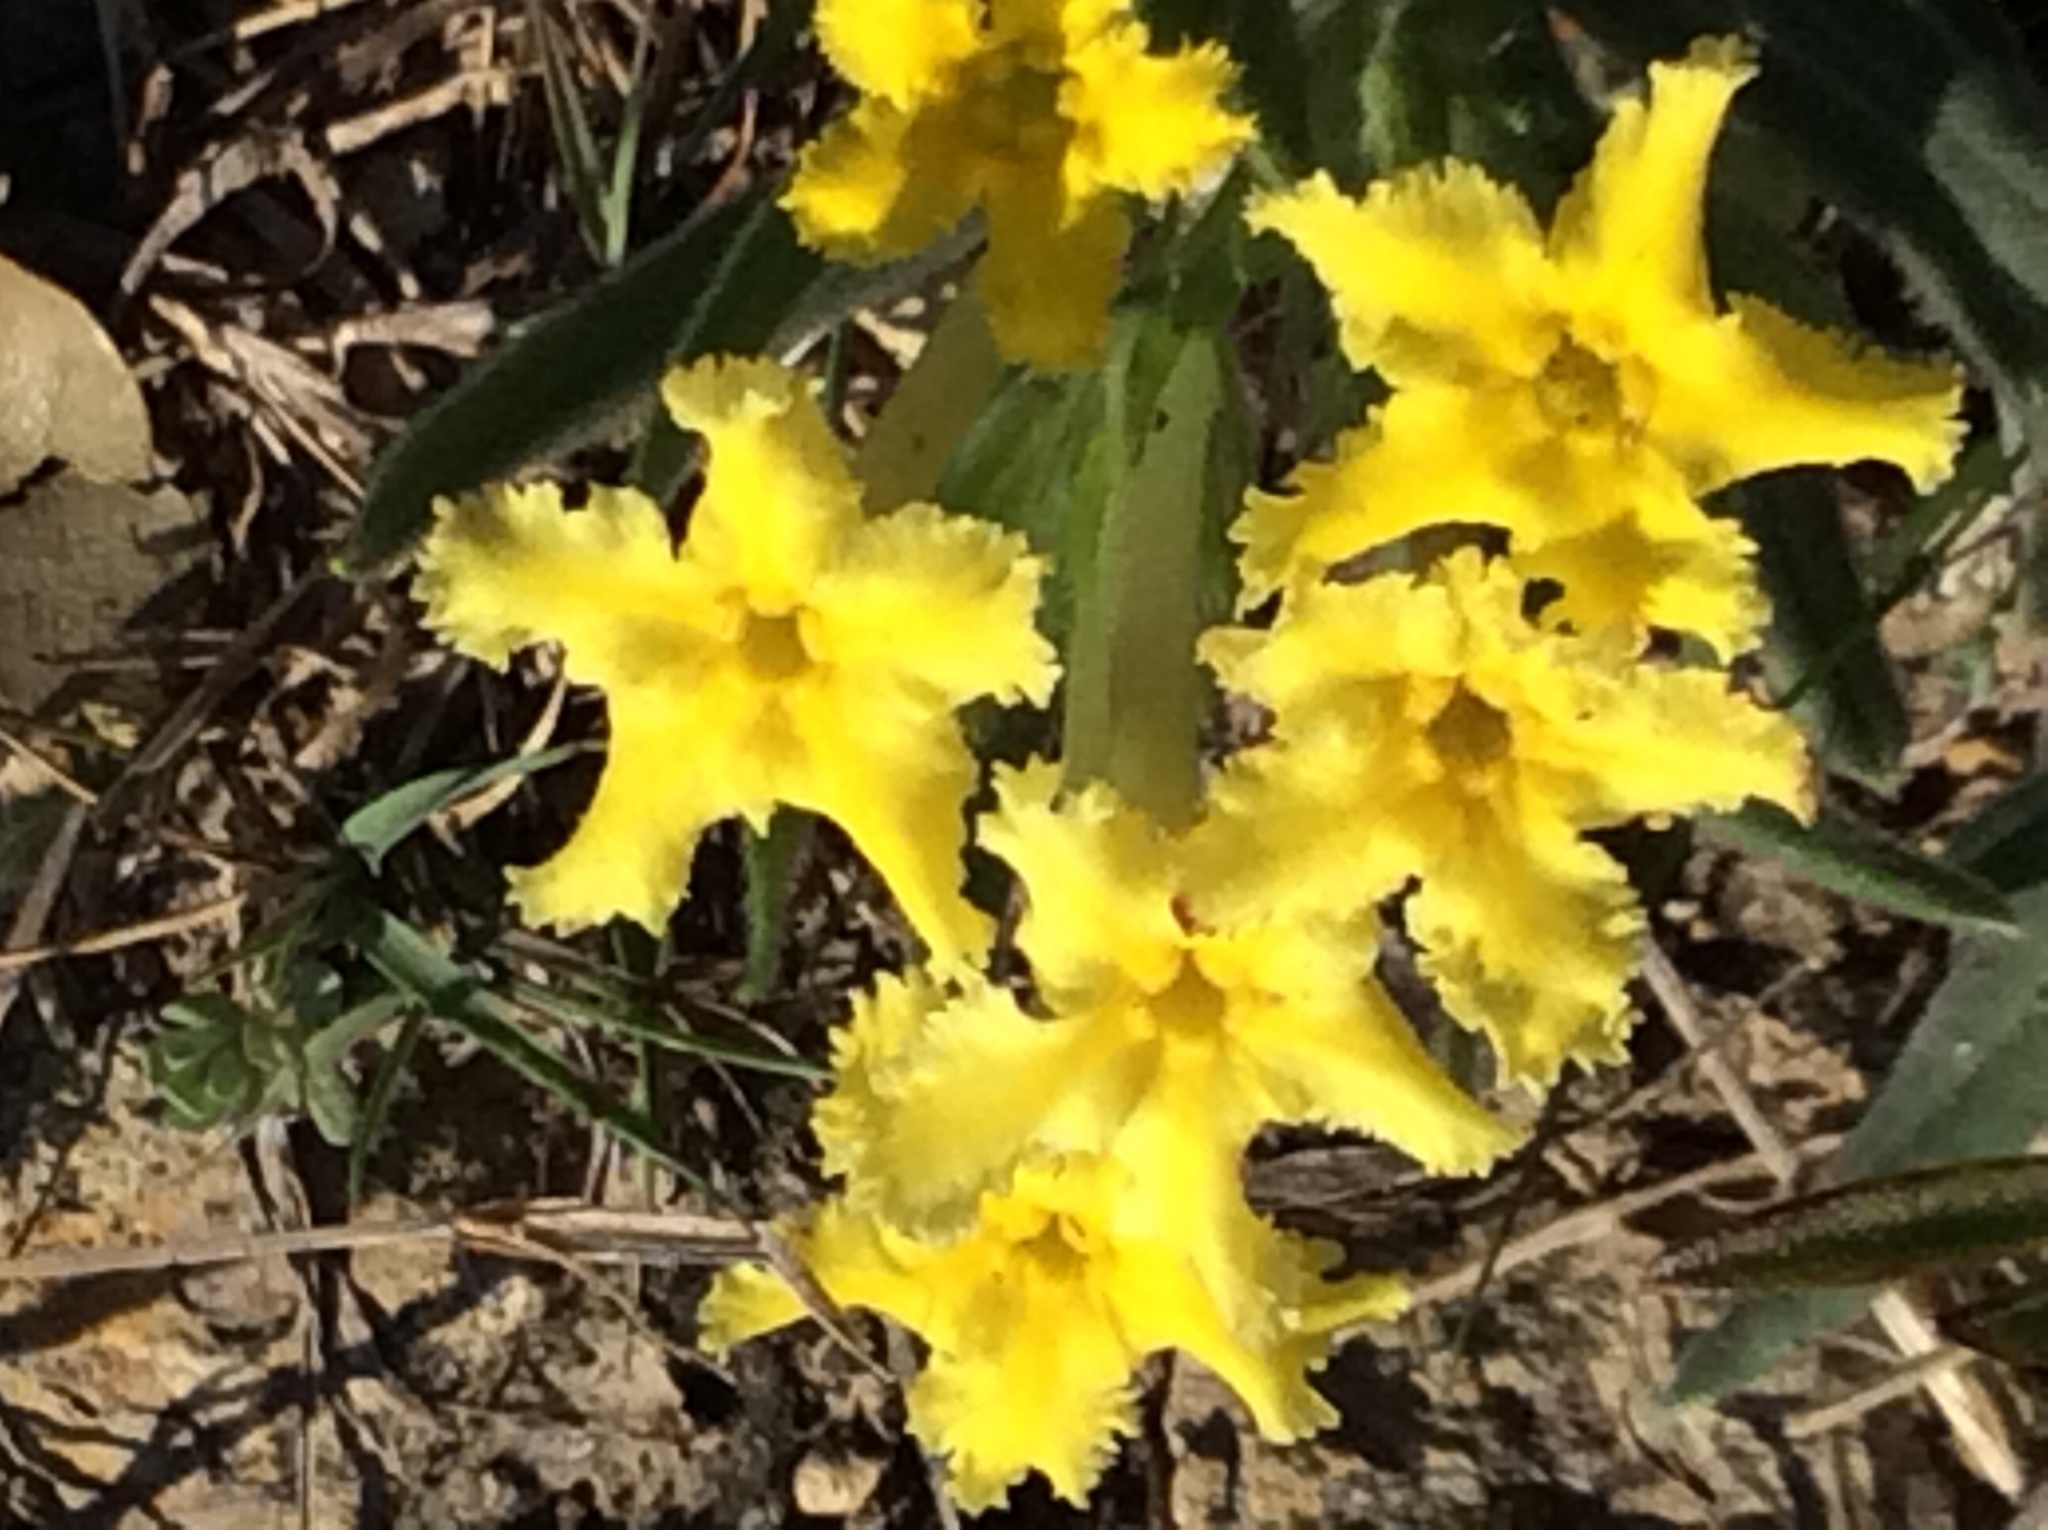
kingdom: Plantae
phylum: Tracheophyta
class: Magnoliopsida
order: Boraginales
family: Boraginaceae
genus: Lithospermum
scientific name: Lithospermum incisum
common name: Fringed gromwell
